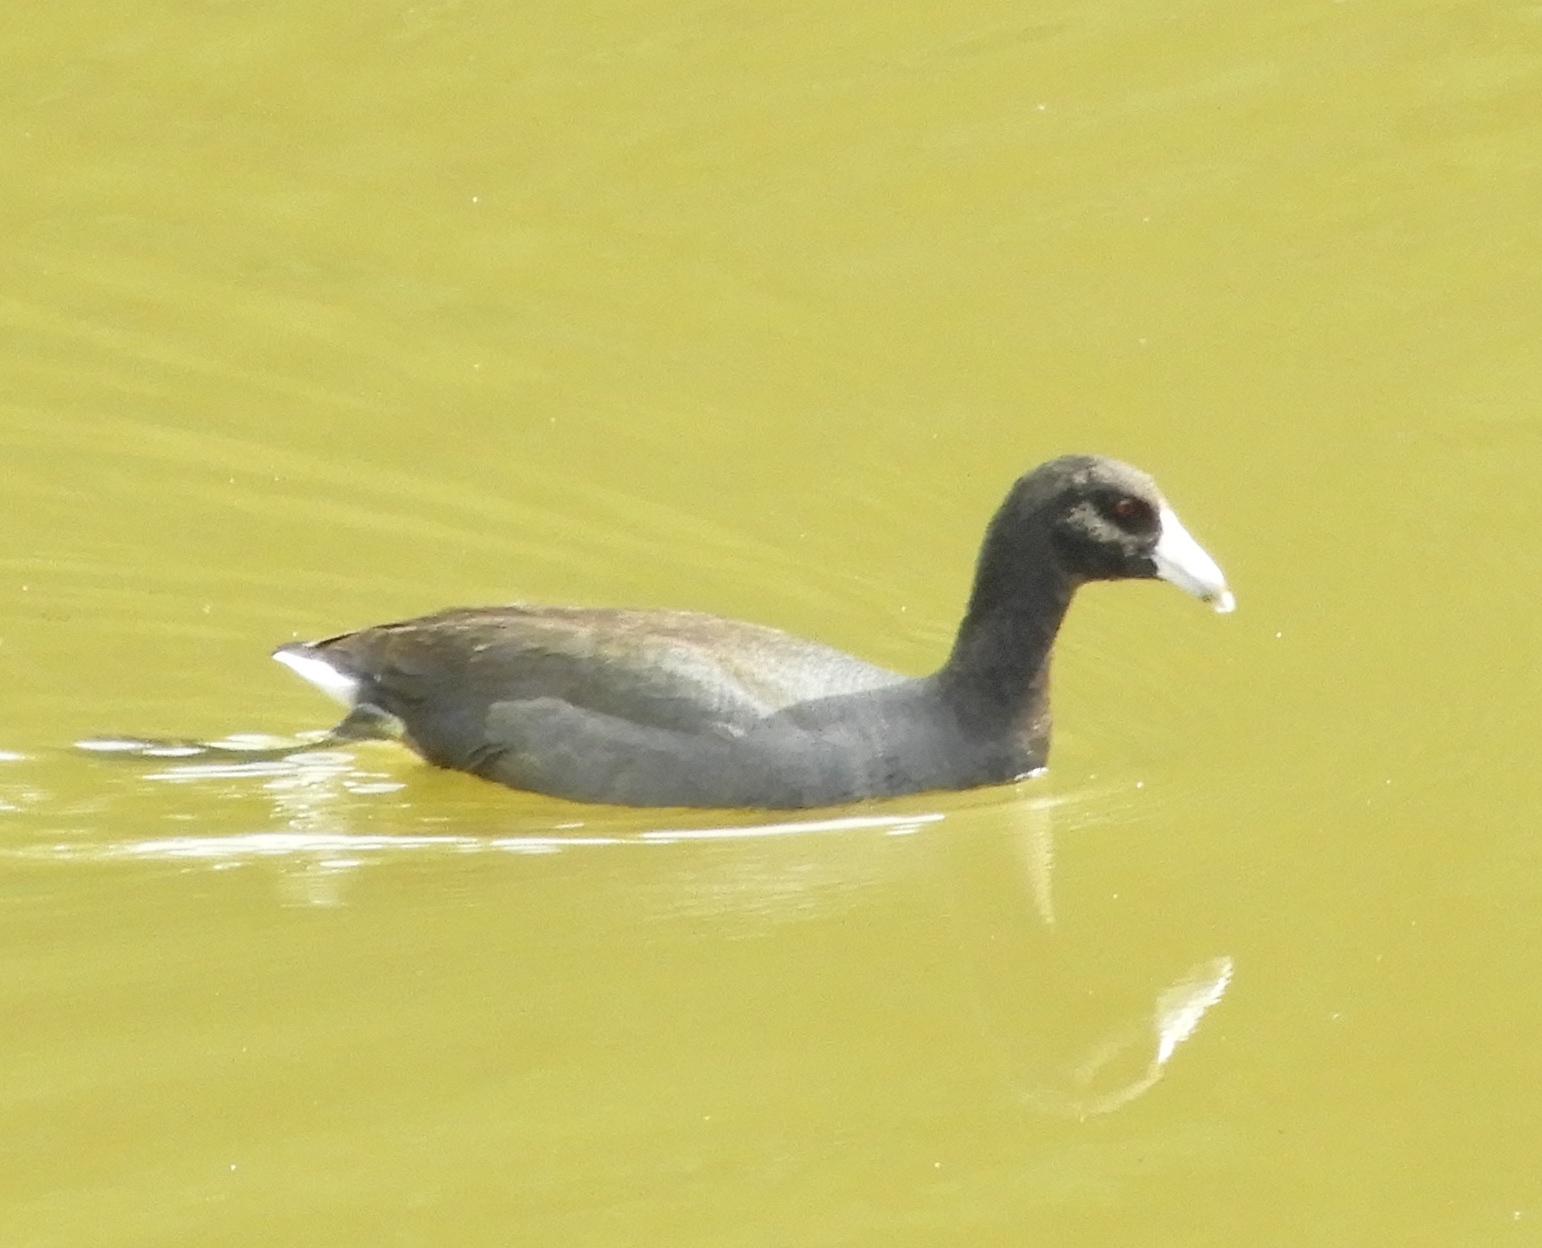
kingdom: Animalia
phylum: Chordata
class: Aves
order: Gruiformes
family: Rallidae
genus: Fulica
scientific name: Fulica americana
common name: American coot
